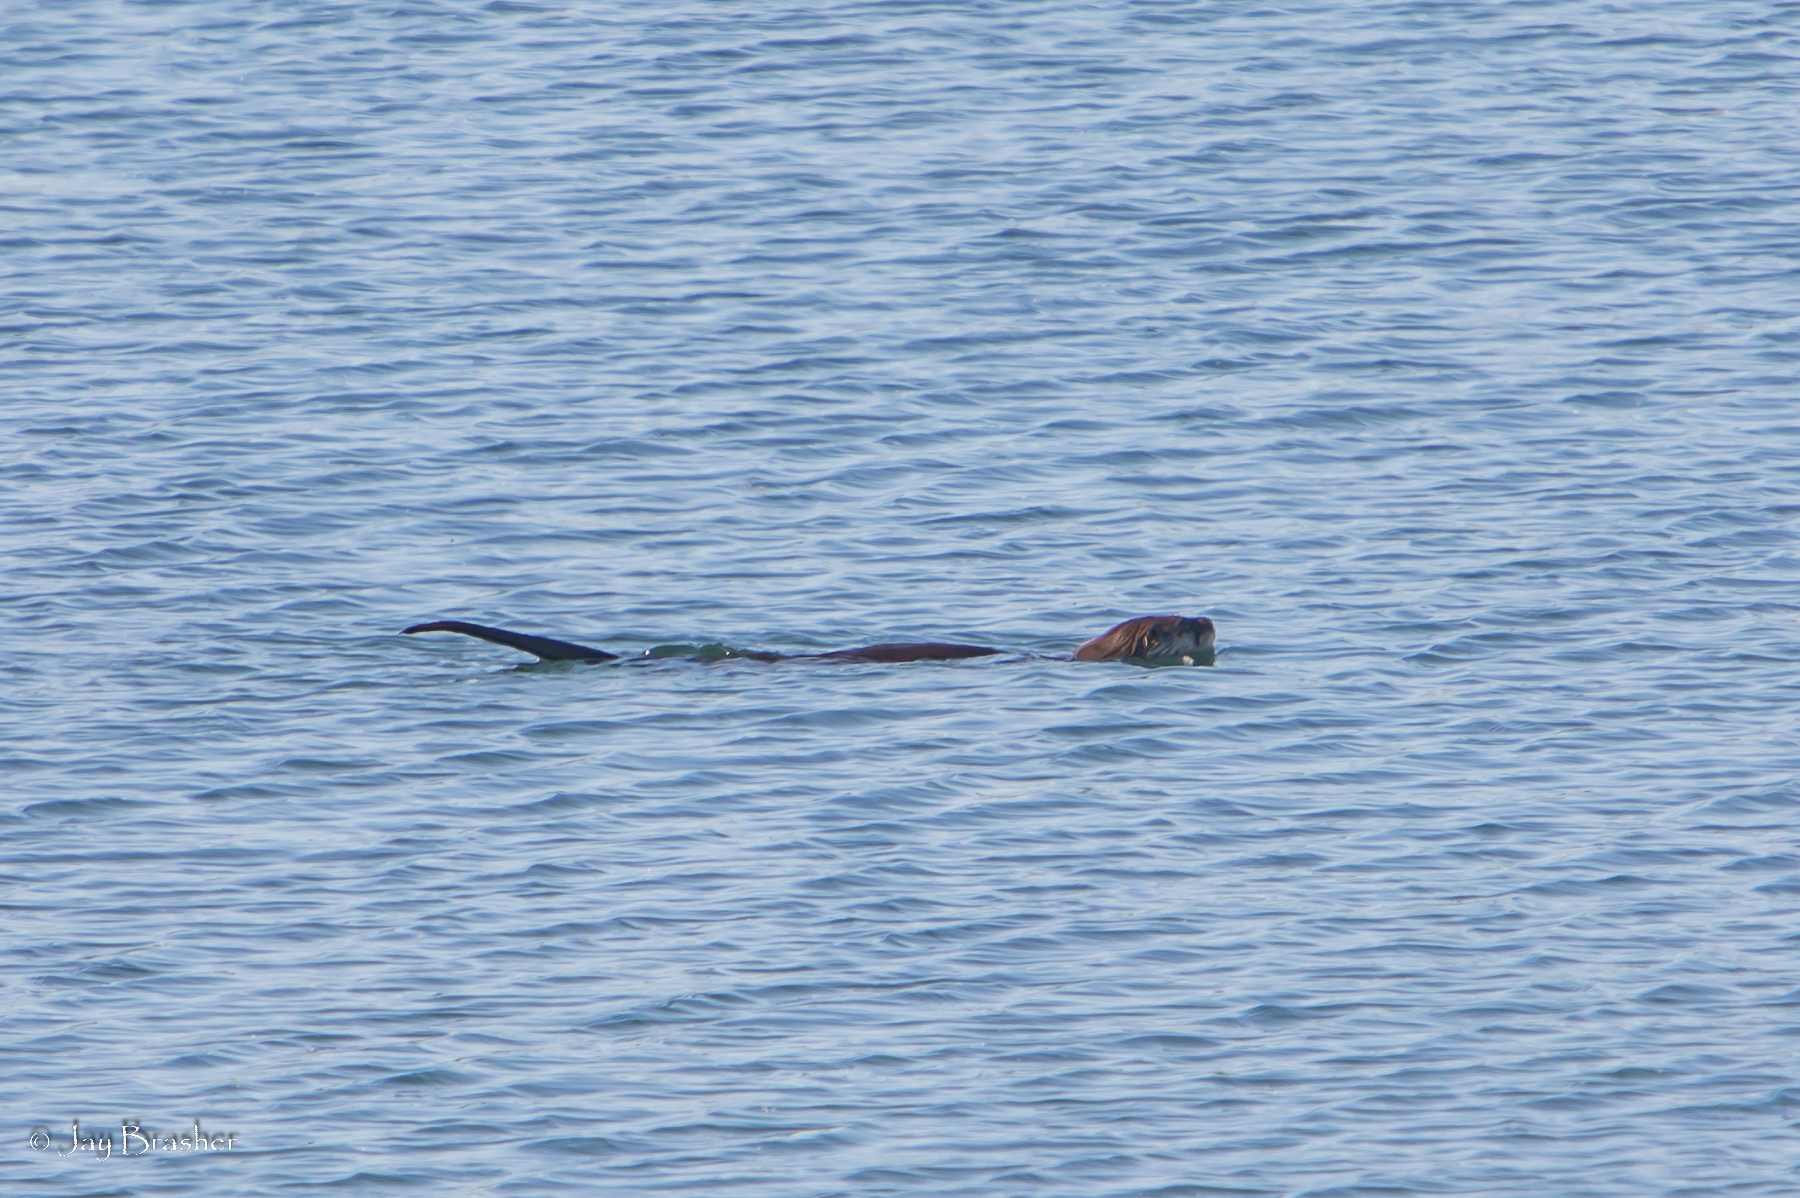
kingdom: Animalia
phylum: Chordata
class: Mammalia
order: Carnivora
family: Mustelidae
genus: Lontra
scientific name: Lontra canadensis
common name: North american river otter
